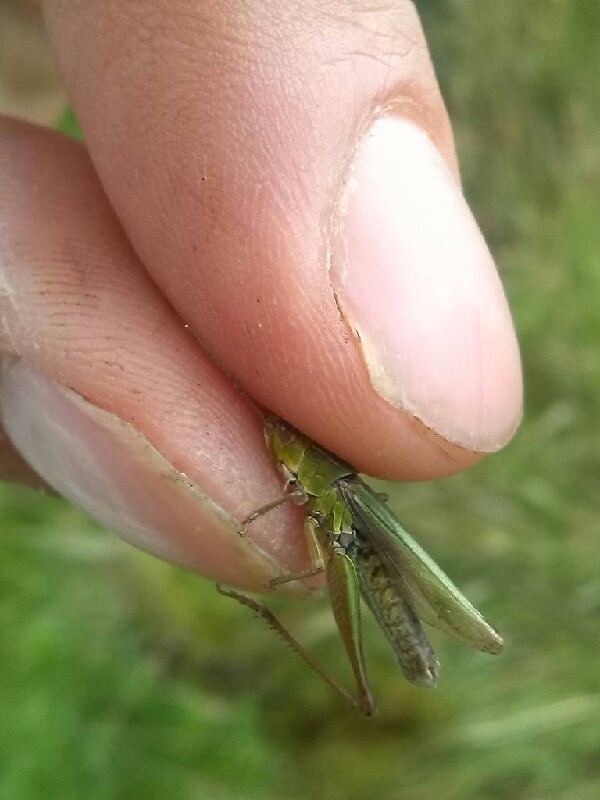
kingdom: Animalia
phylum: Arthropoda
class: Insecta
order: Orthoptera
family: Acrididae
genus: Chorthippus
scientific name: Chorthippus albomarginatus
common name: Lesser marsh grasshopper
